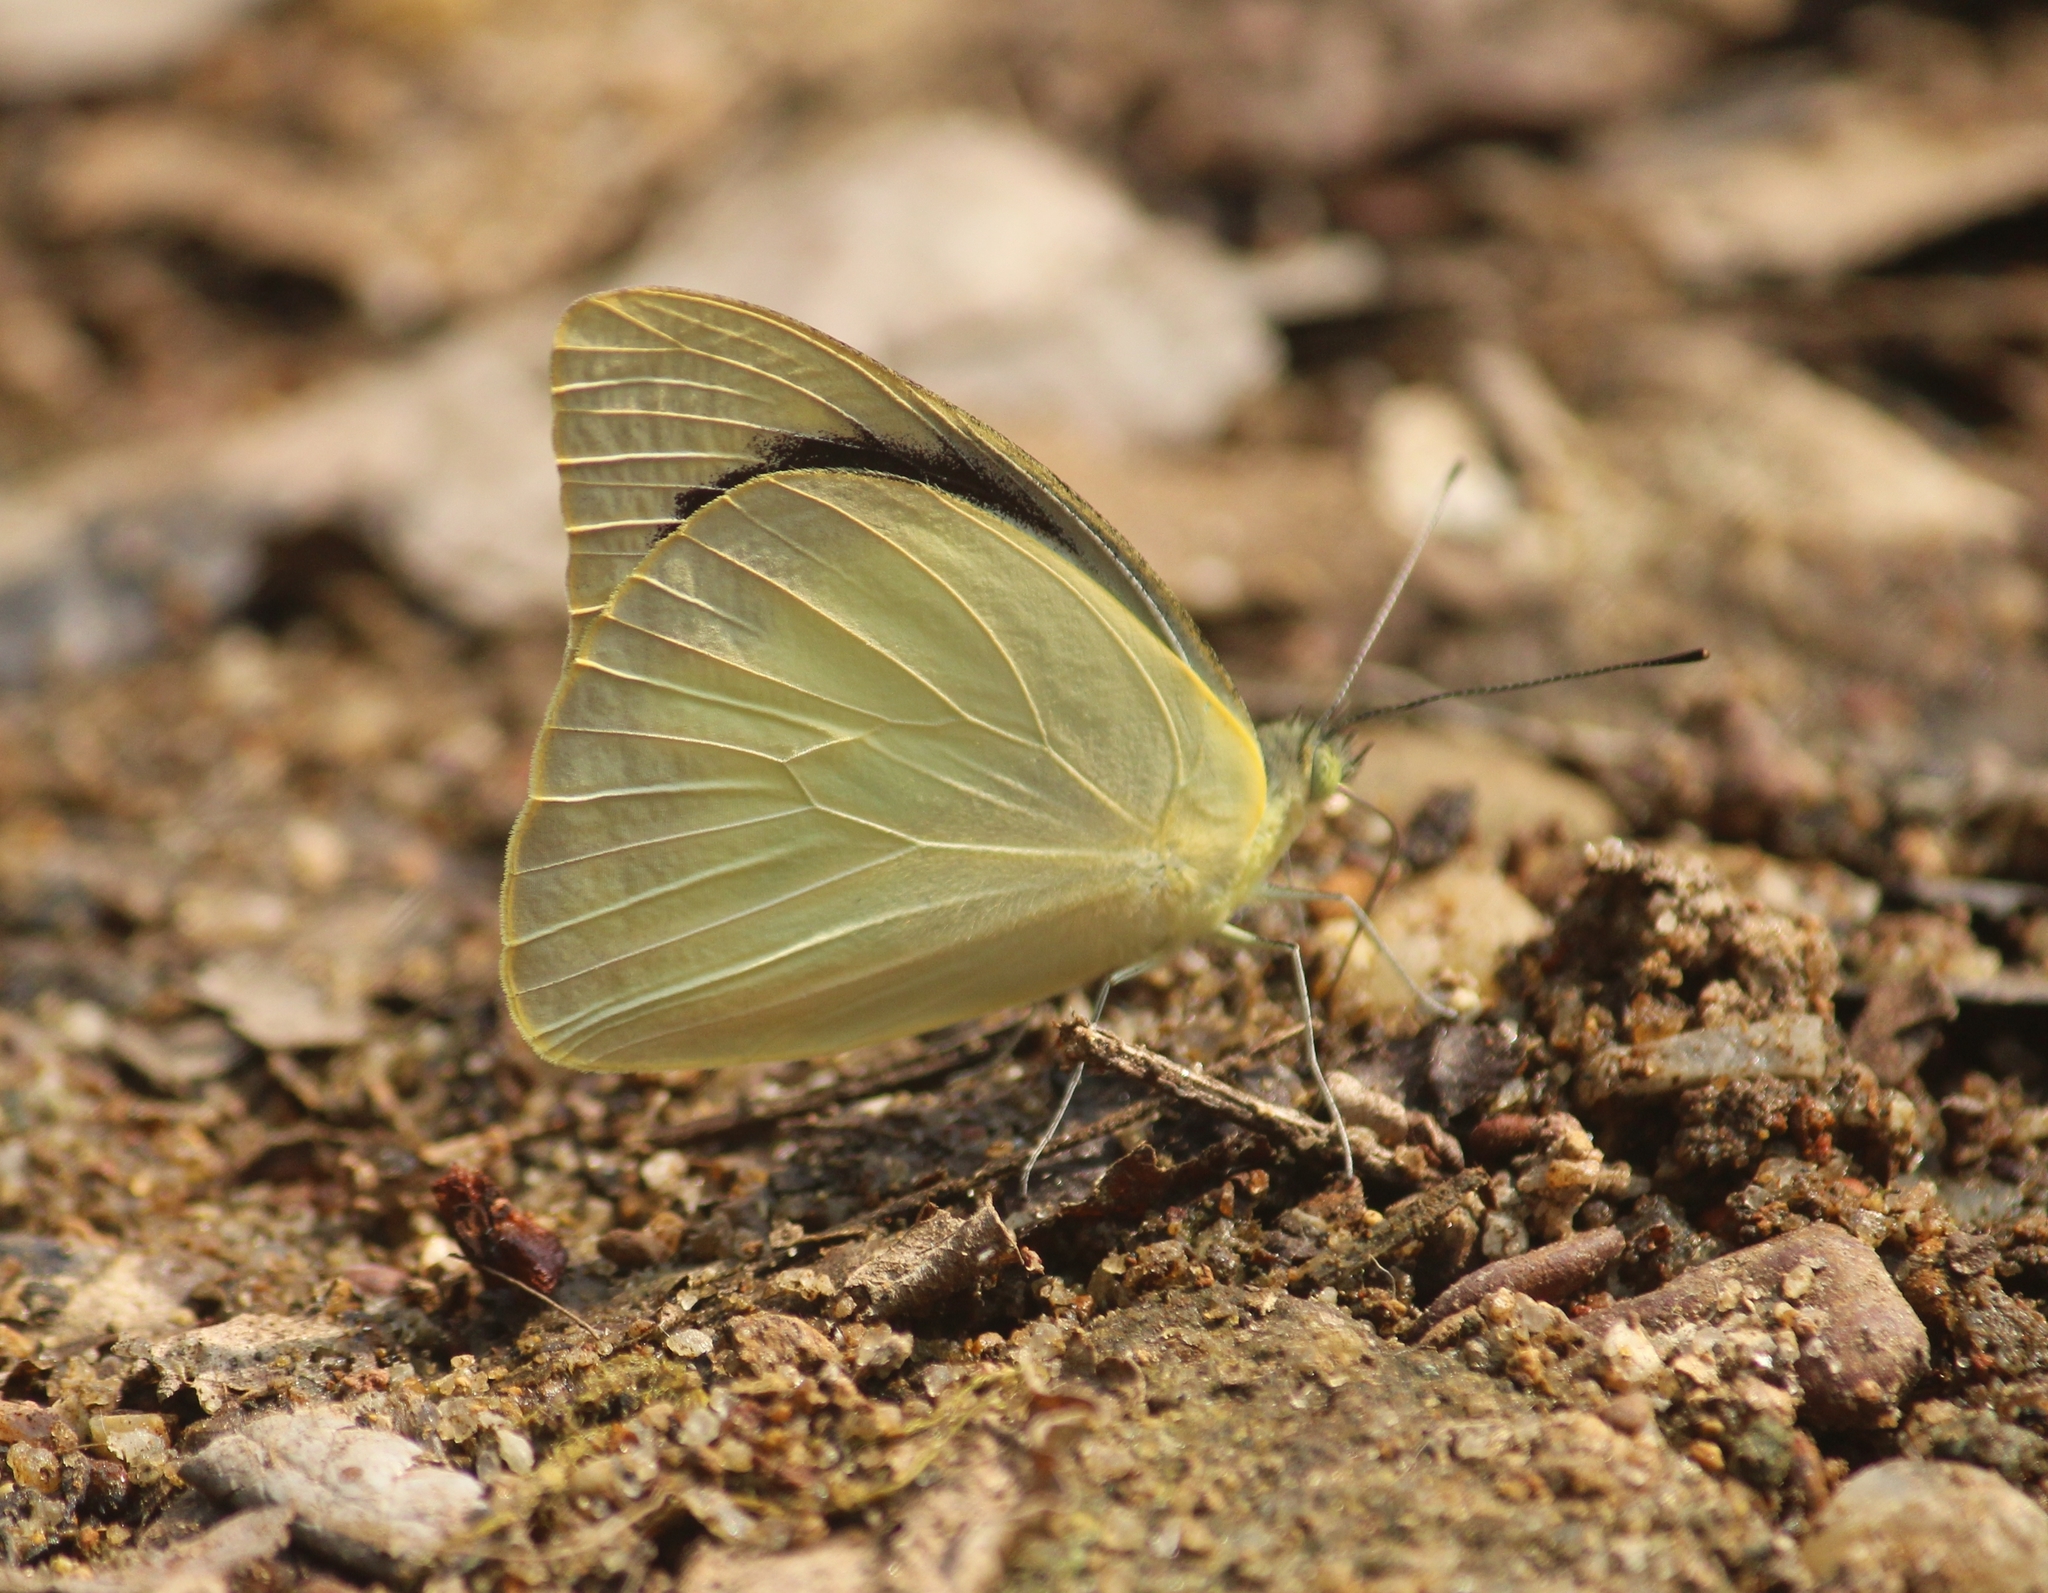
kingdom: Animalia
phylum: Arthropoda
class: Insecta
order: Lepidoptera
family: Pieridae
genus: Appias
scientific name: Appias wardii
